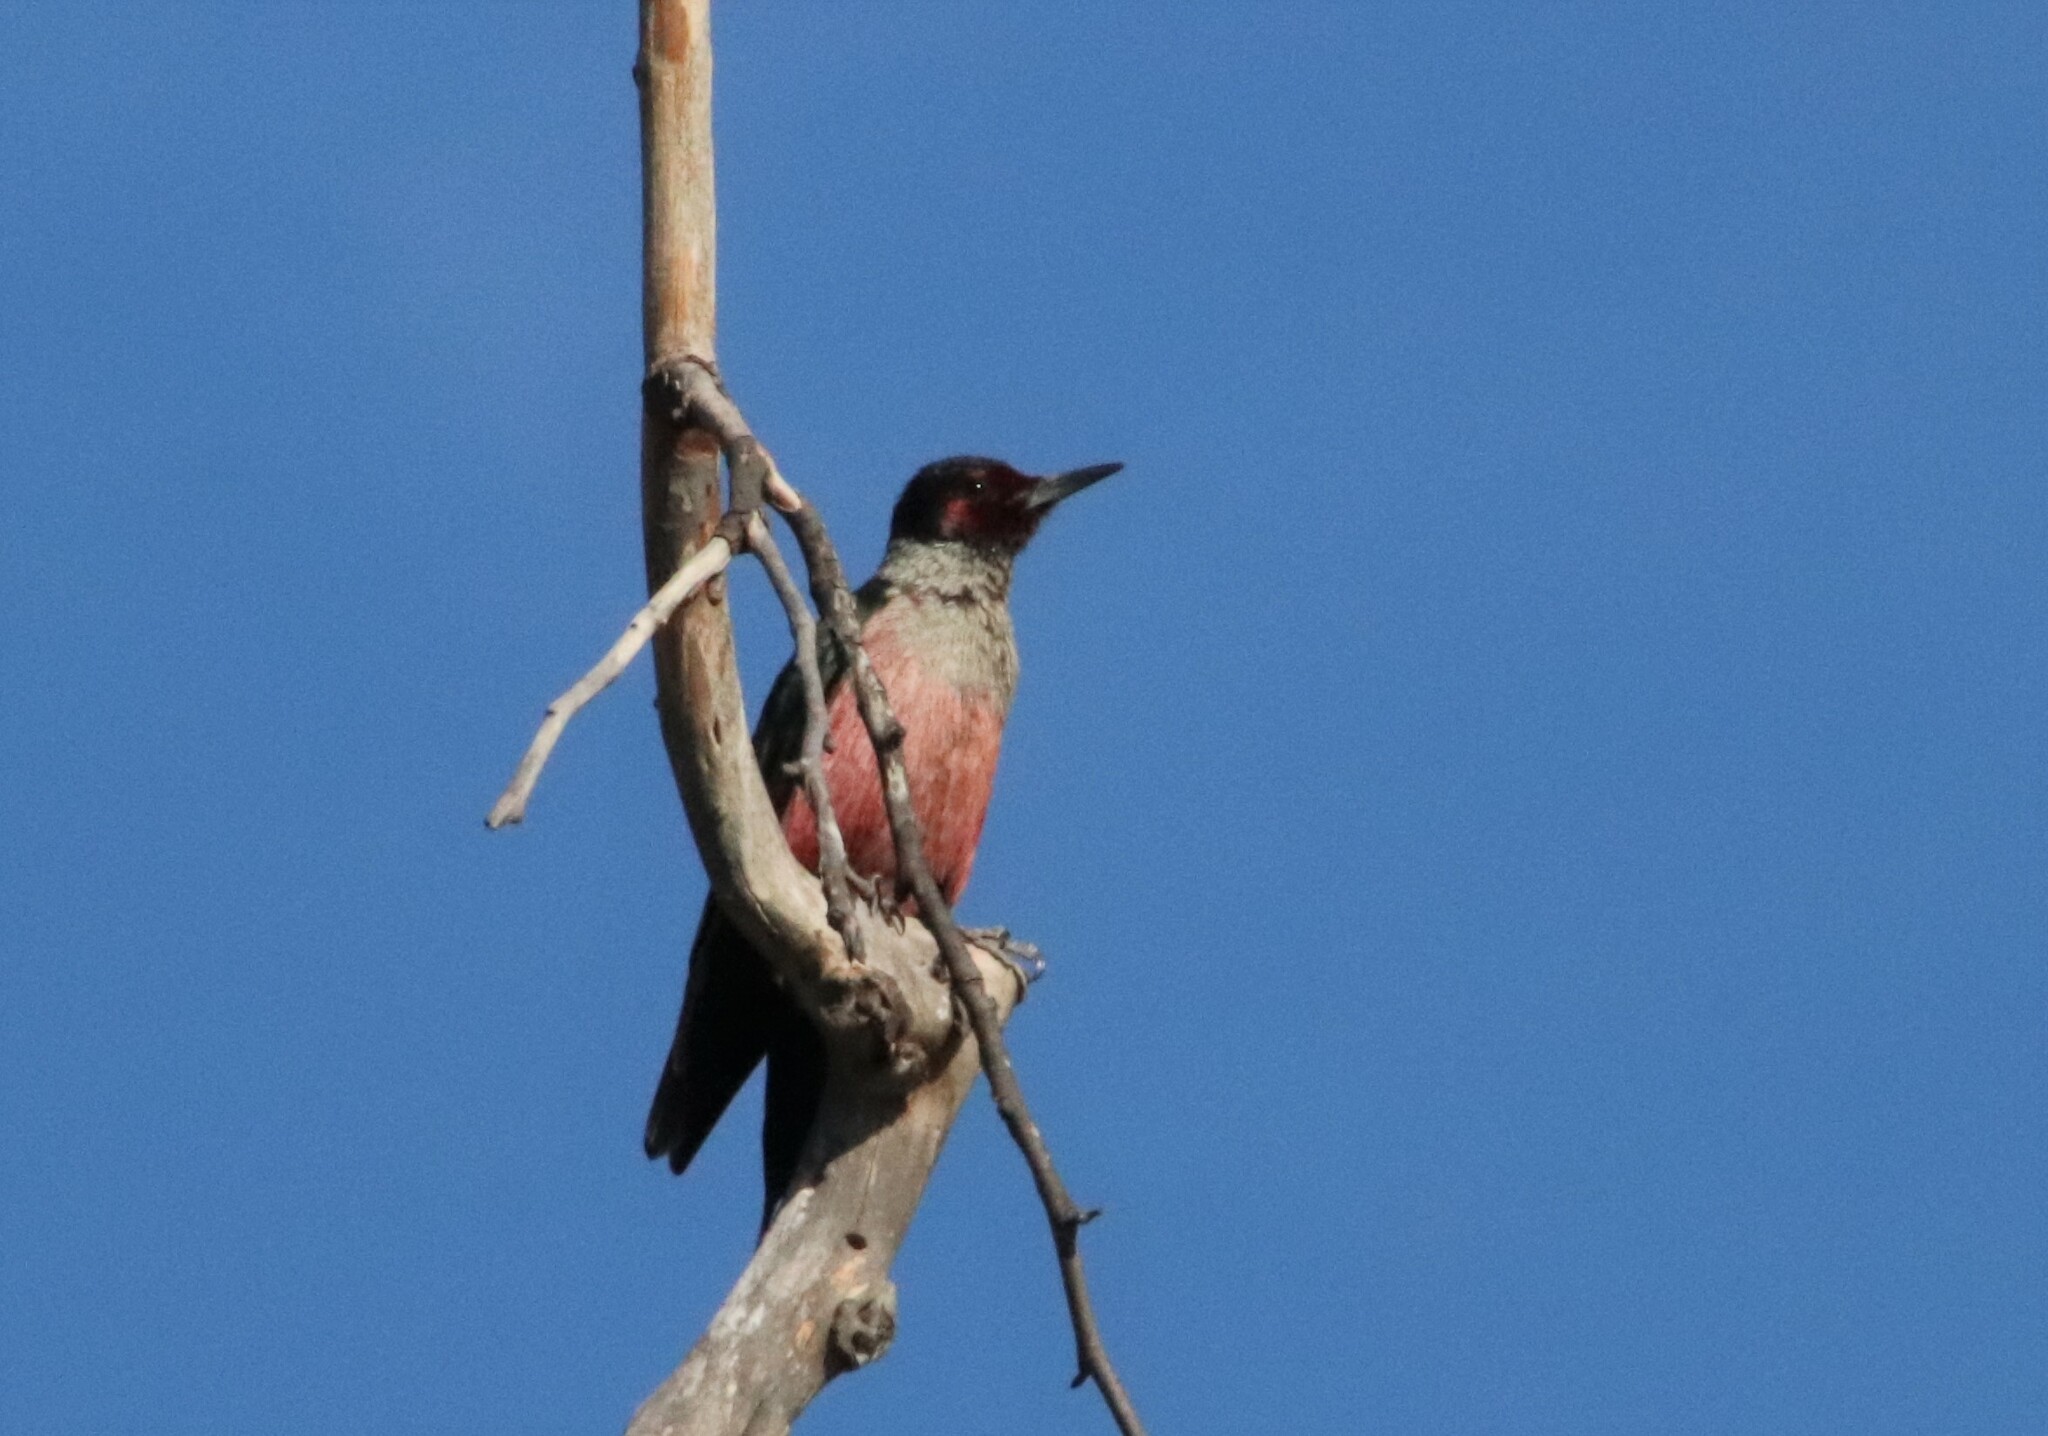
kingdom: Animalia
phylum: Chordata
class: Aves
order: Piciformes
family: Picidae
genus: Melanerpes
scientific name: Melanerpes lewis
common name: Lewis's woodpecker
